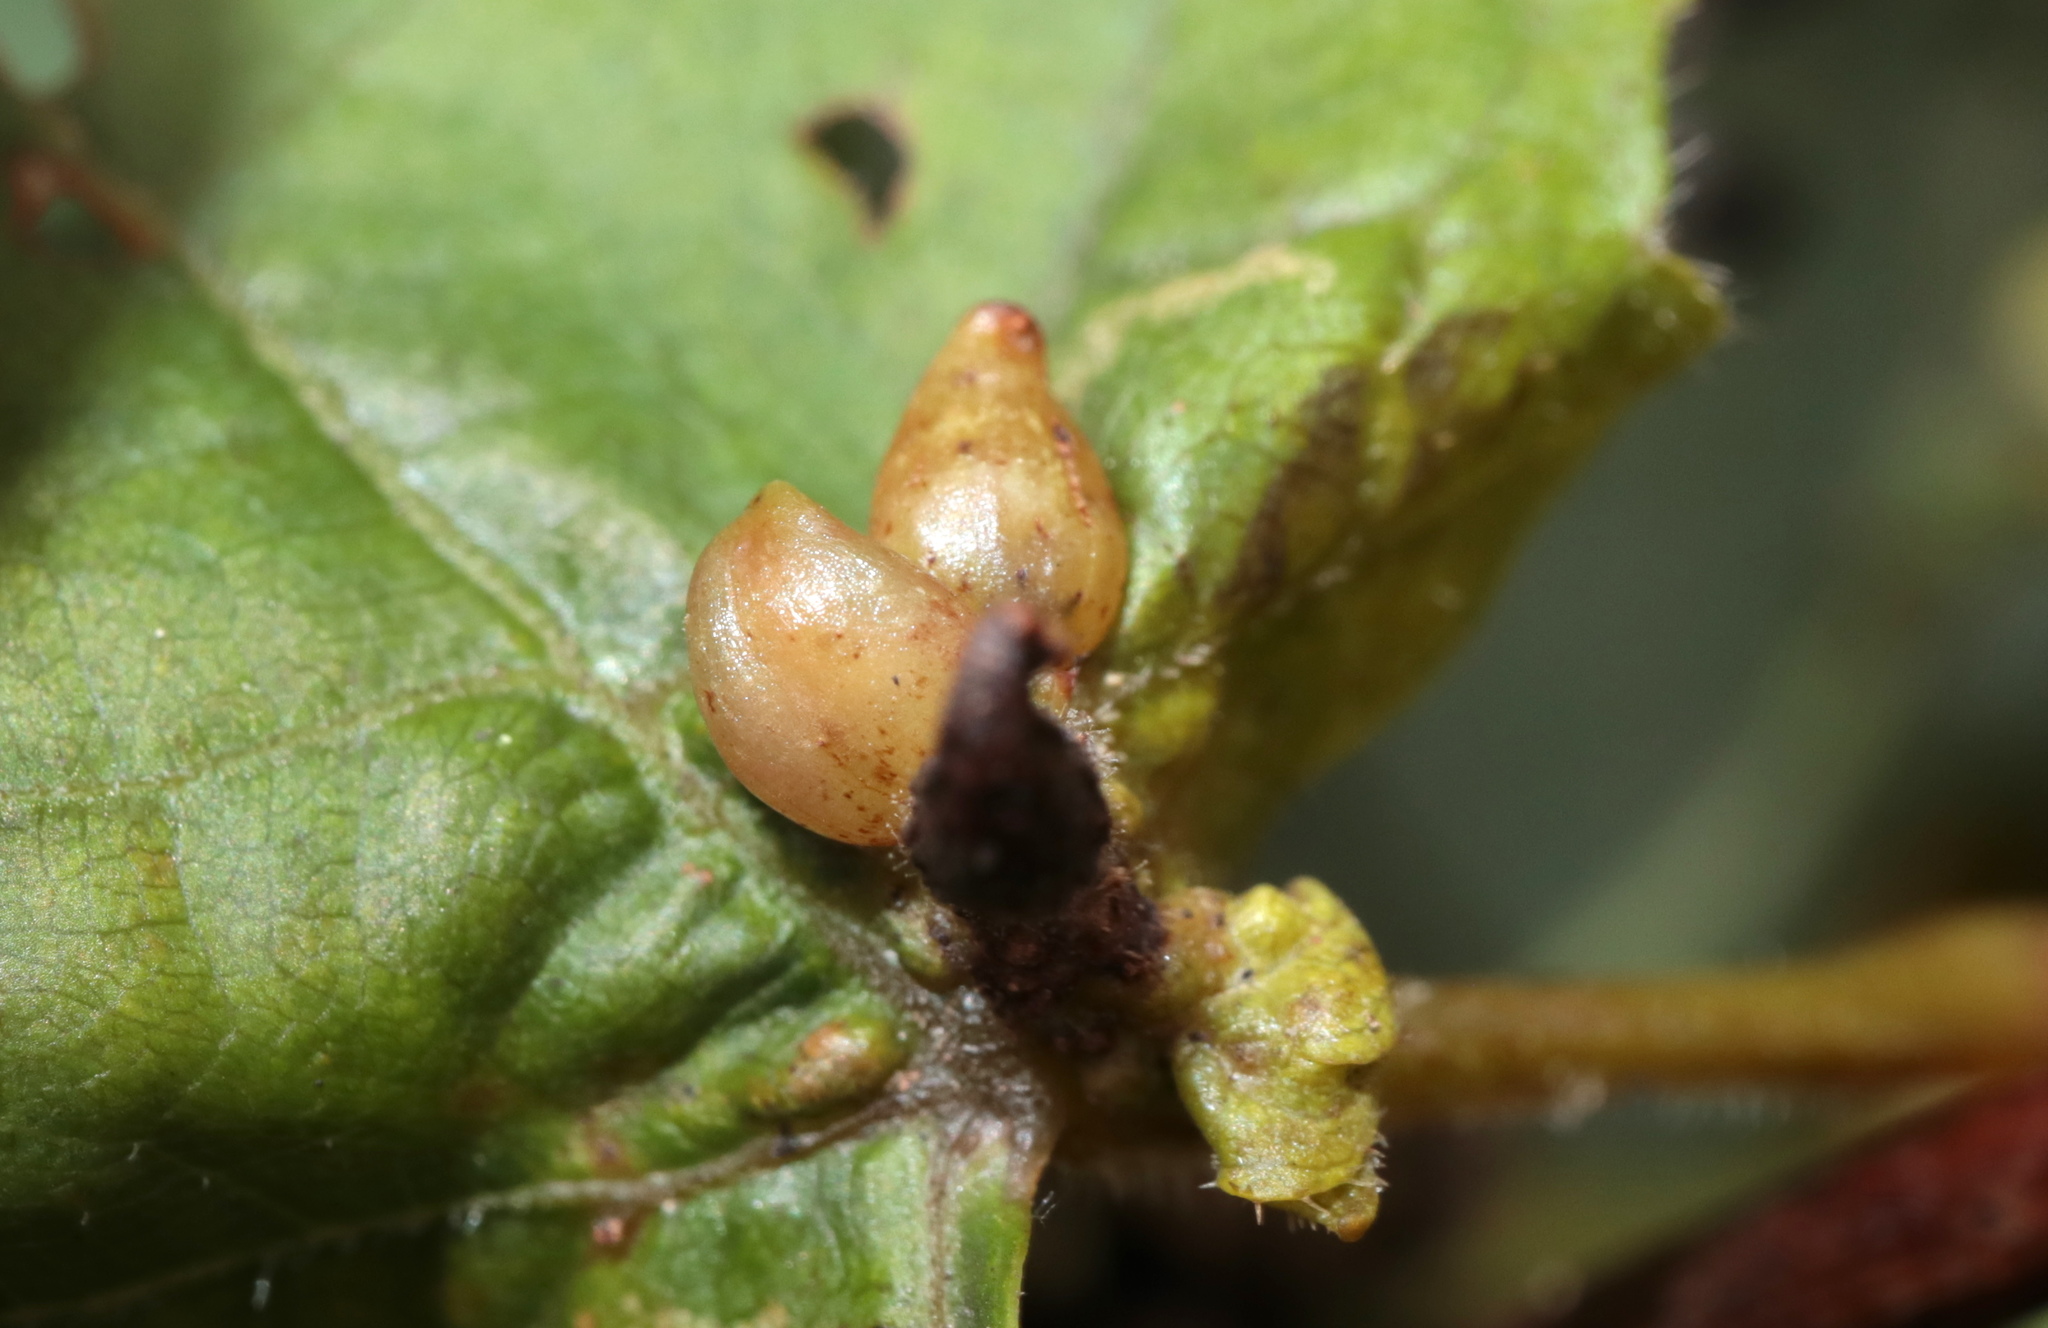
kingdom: Animalia
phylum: Arthropoda
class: Insecta
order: Diptera
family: Cecidomyiidae
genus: Ampelomyia
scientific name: Ampelomyia vitiscoryloides
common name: Grape filbert gall
